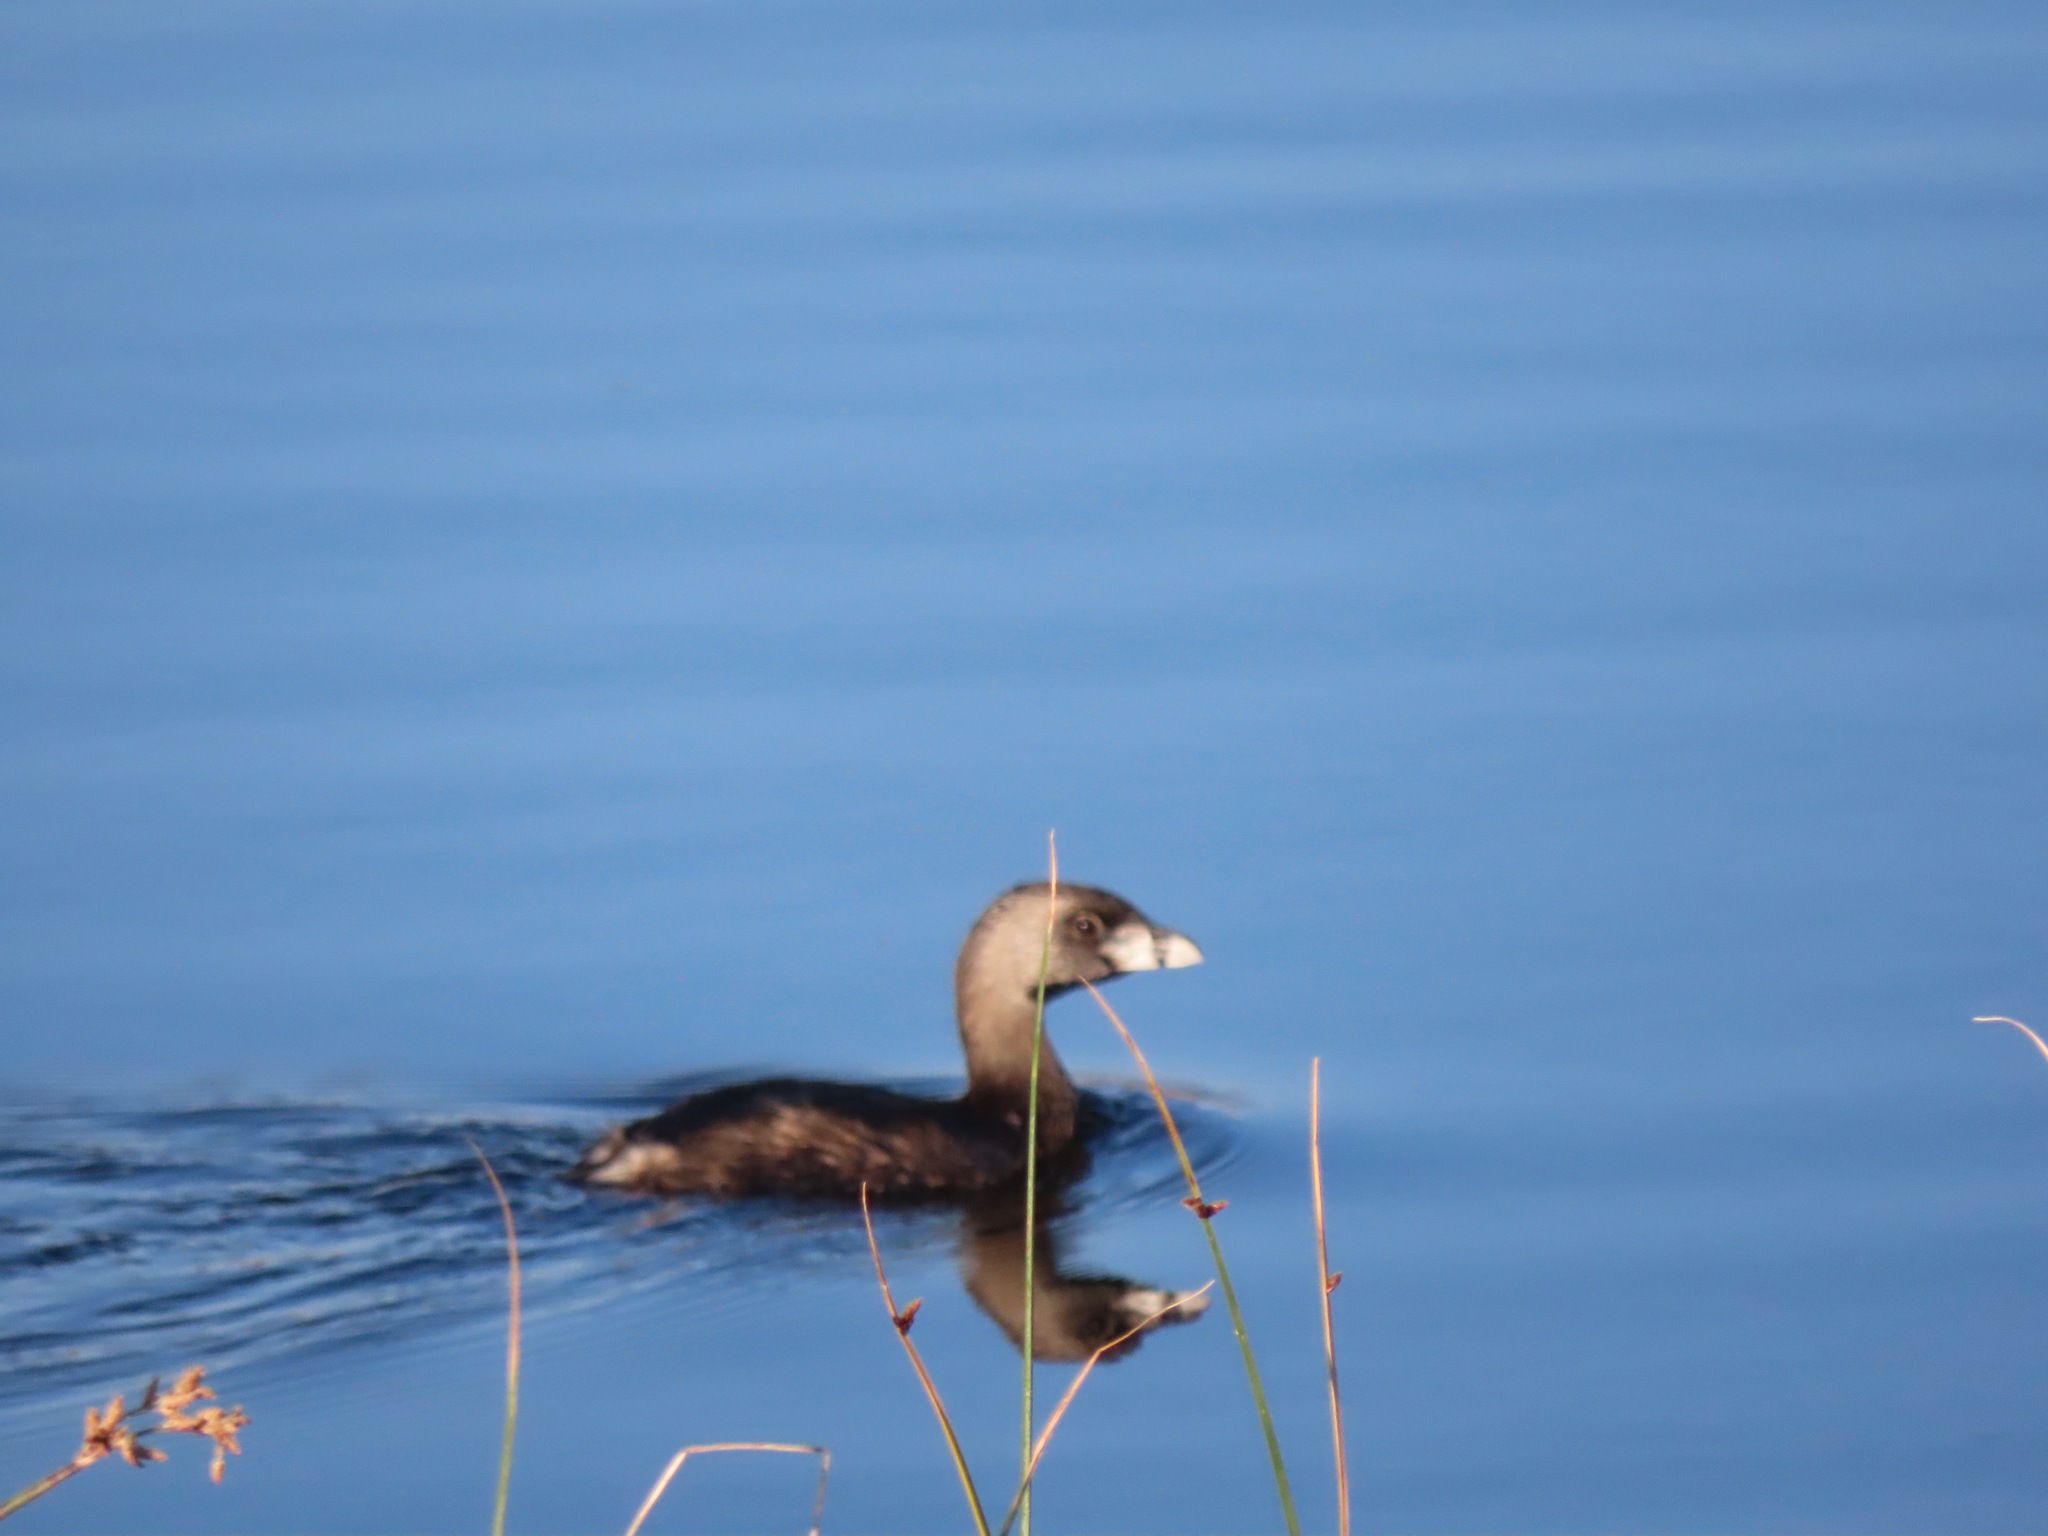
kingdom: Animalia
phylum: Chordata
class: Aves
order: Podicipediformes
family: Podicipedidae
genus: Podilymbus
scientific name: Podilymbus podiceps
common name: Pied-billed grebe
